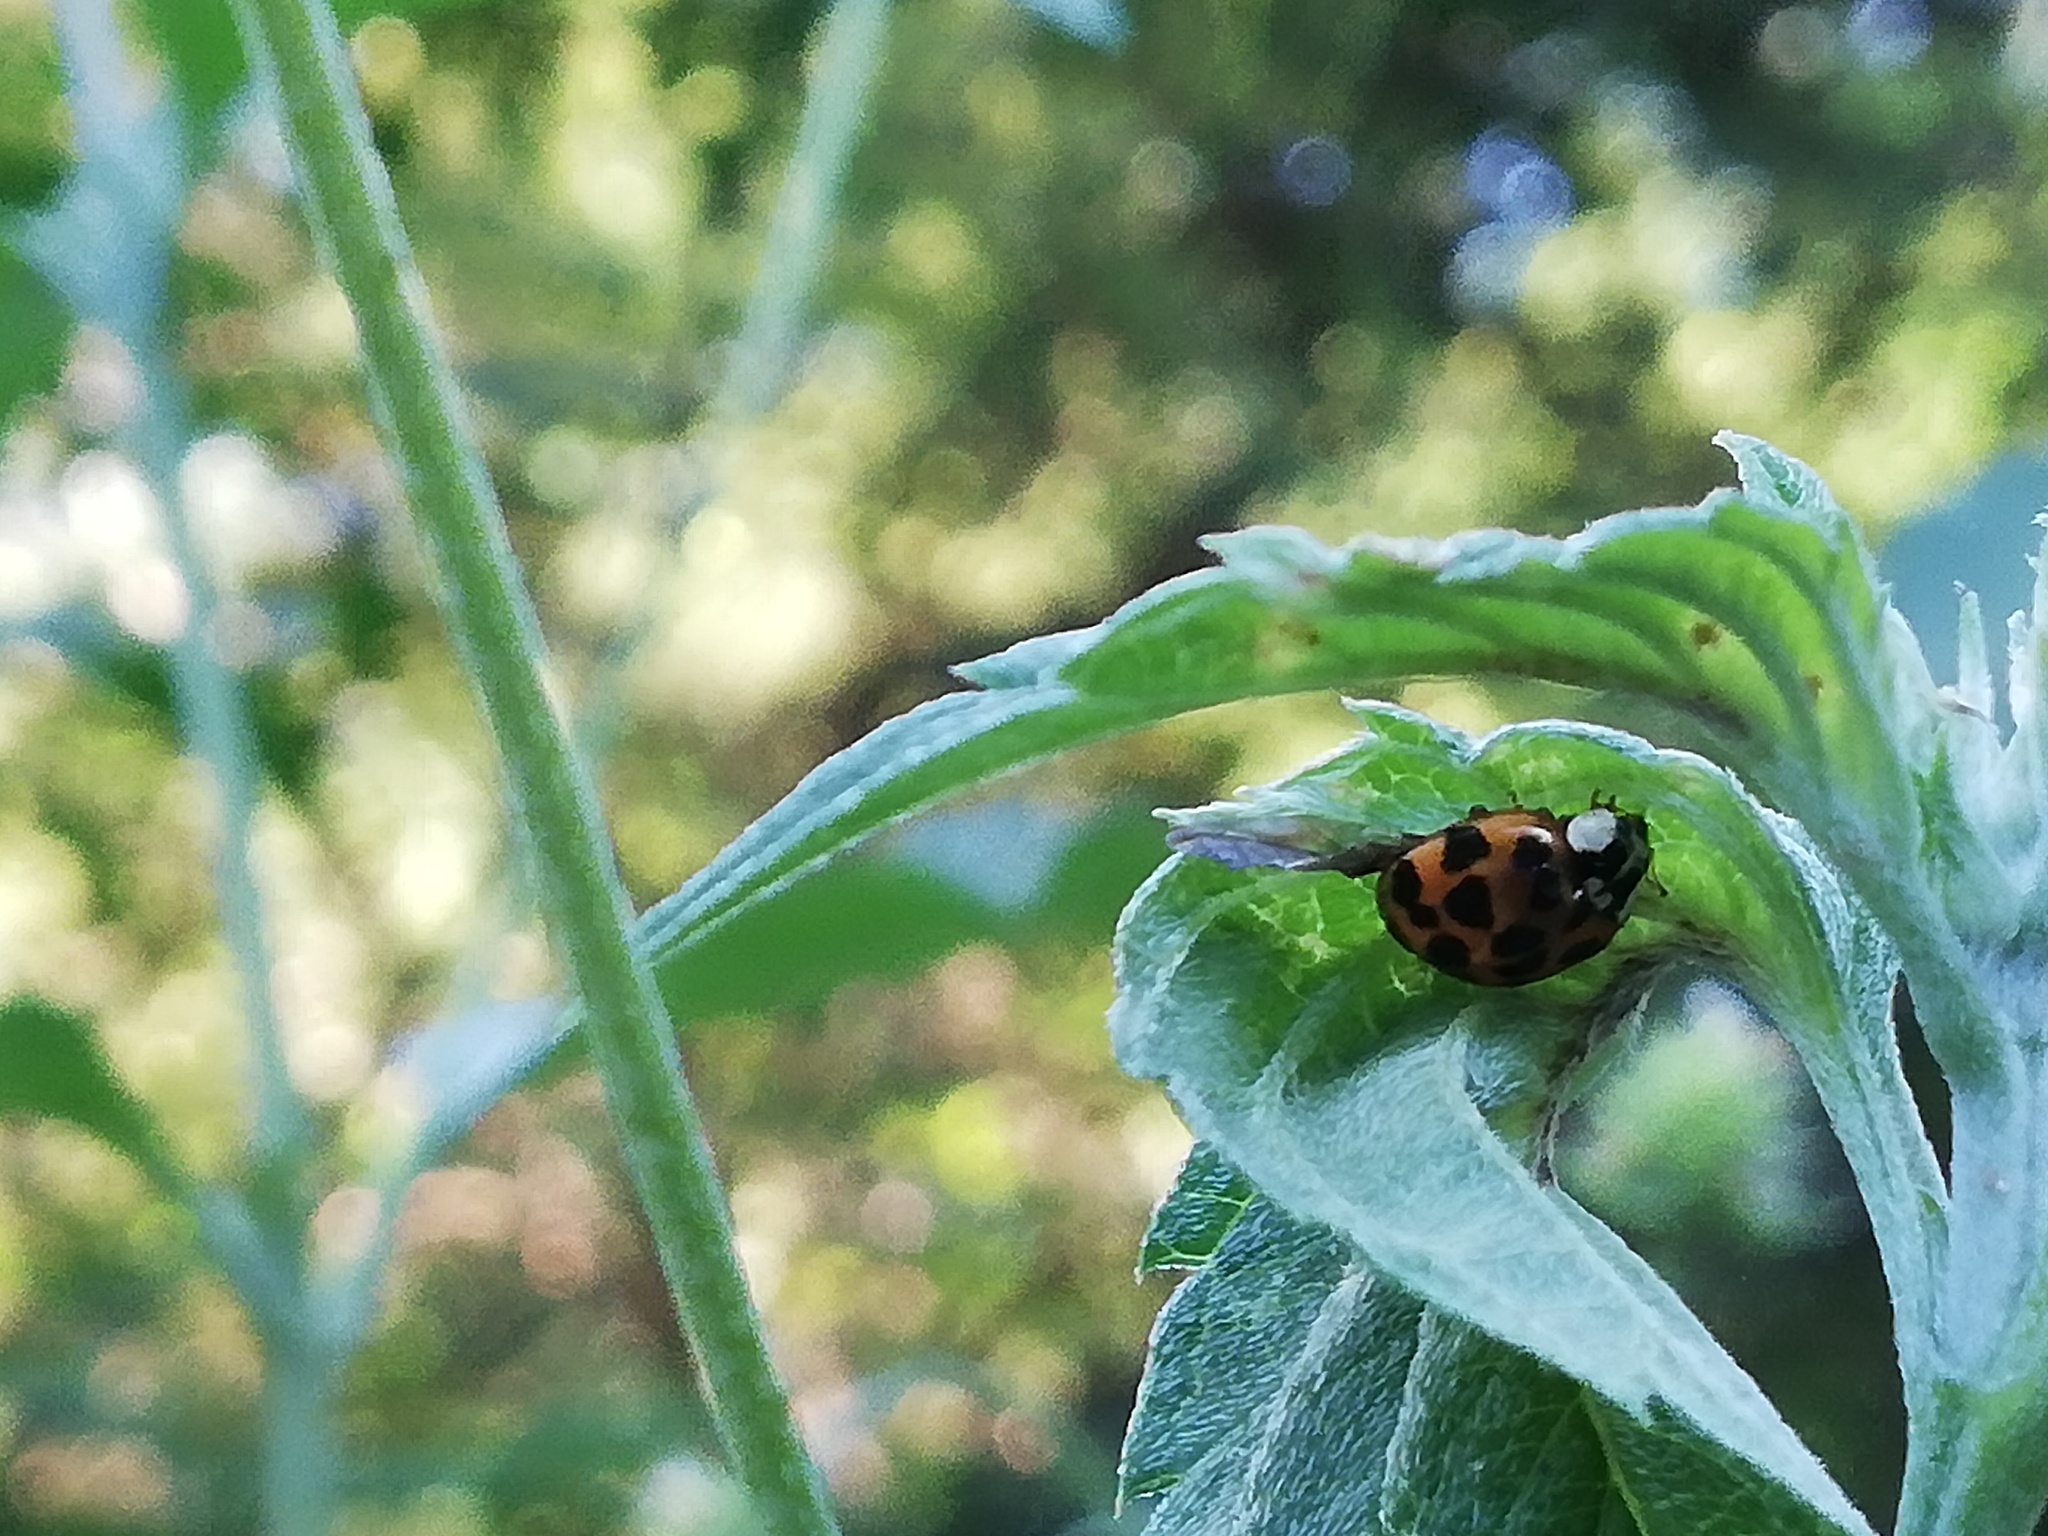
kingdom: Animalia
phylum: Arthropoda
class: Insecta
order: Coleoptera
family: Coccinellidae
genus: Harmonia
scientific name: Harmonia axyridis
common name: Harlequin ladybird
